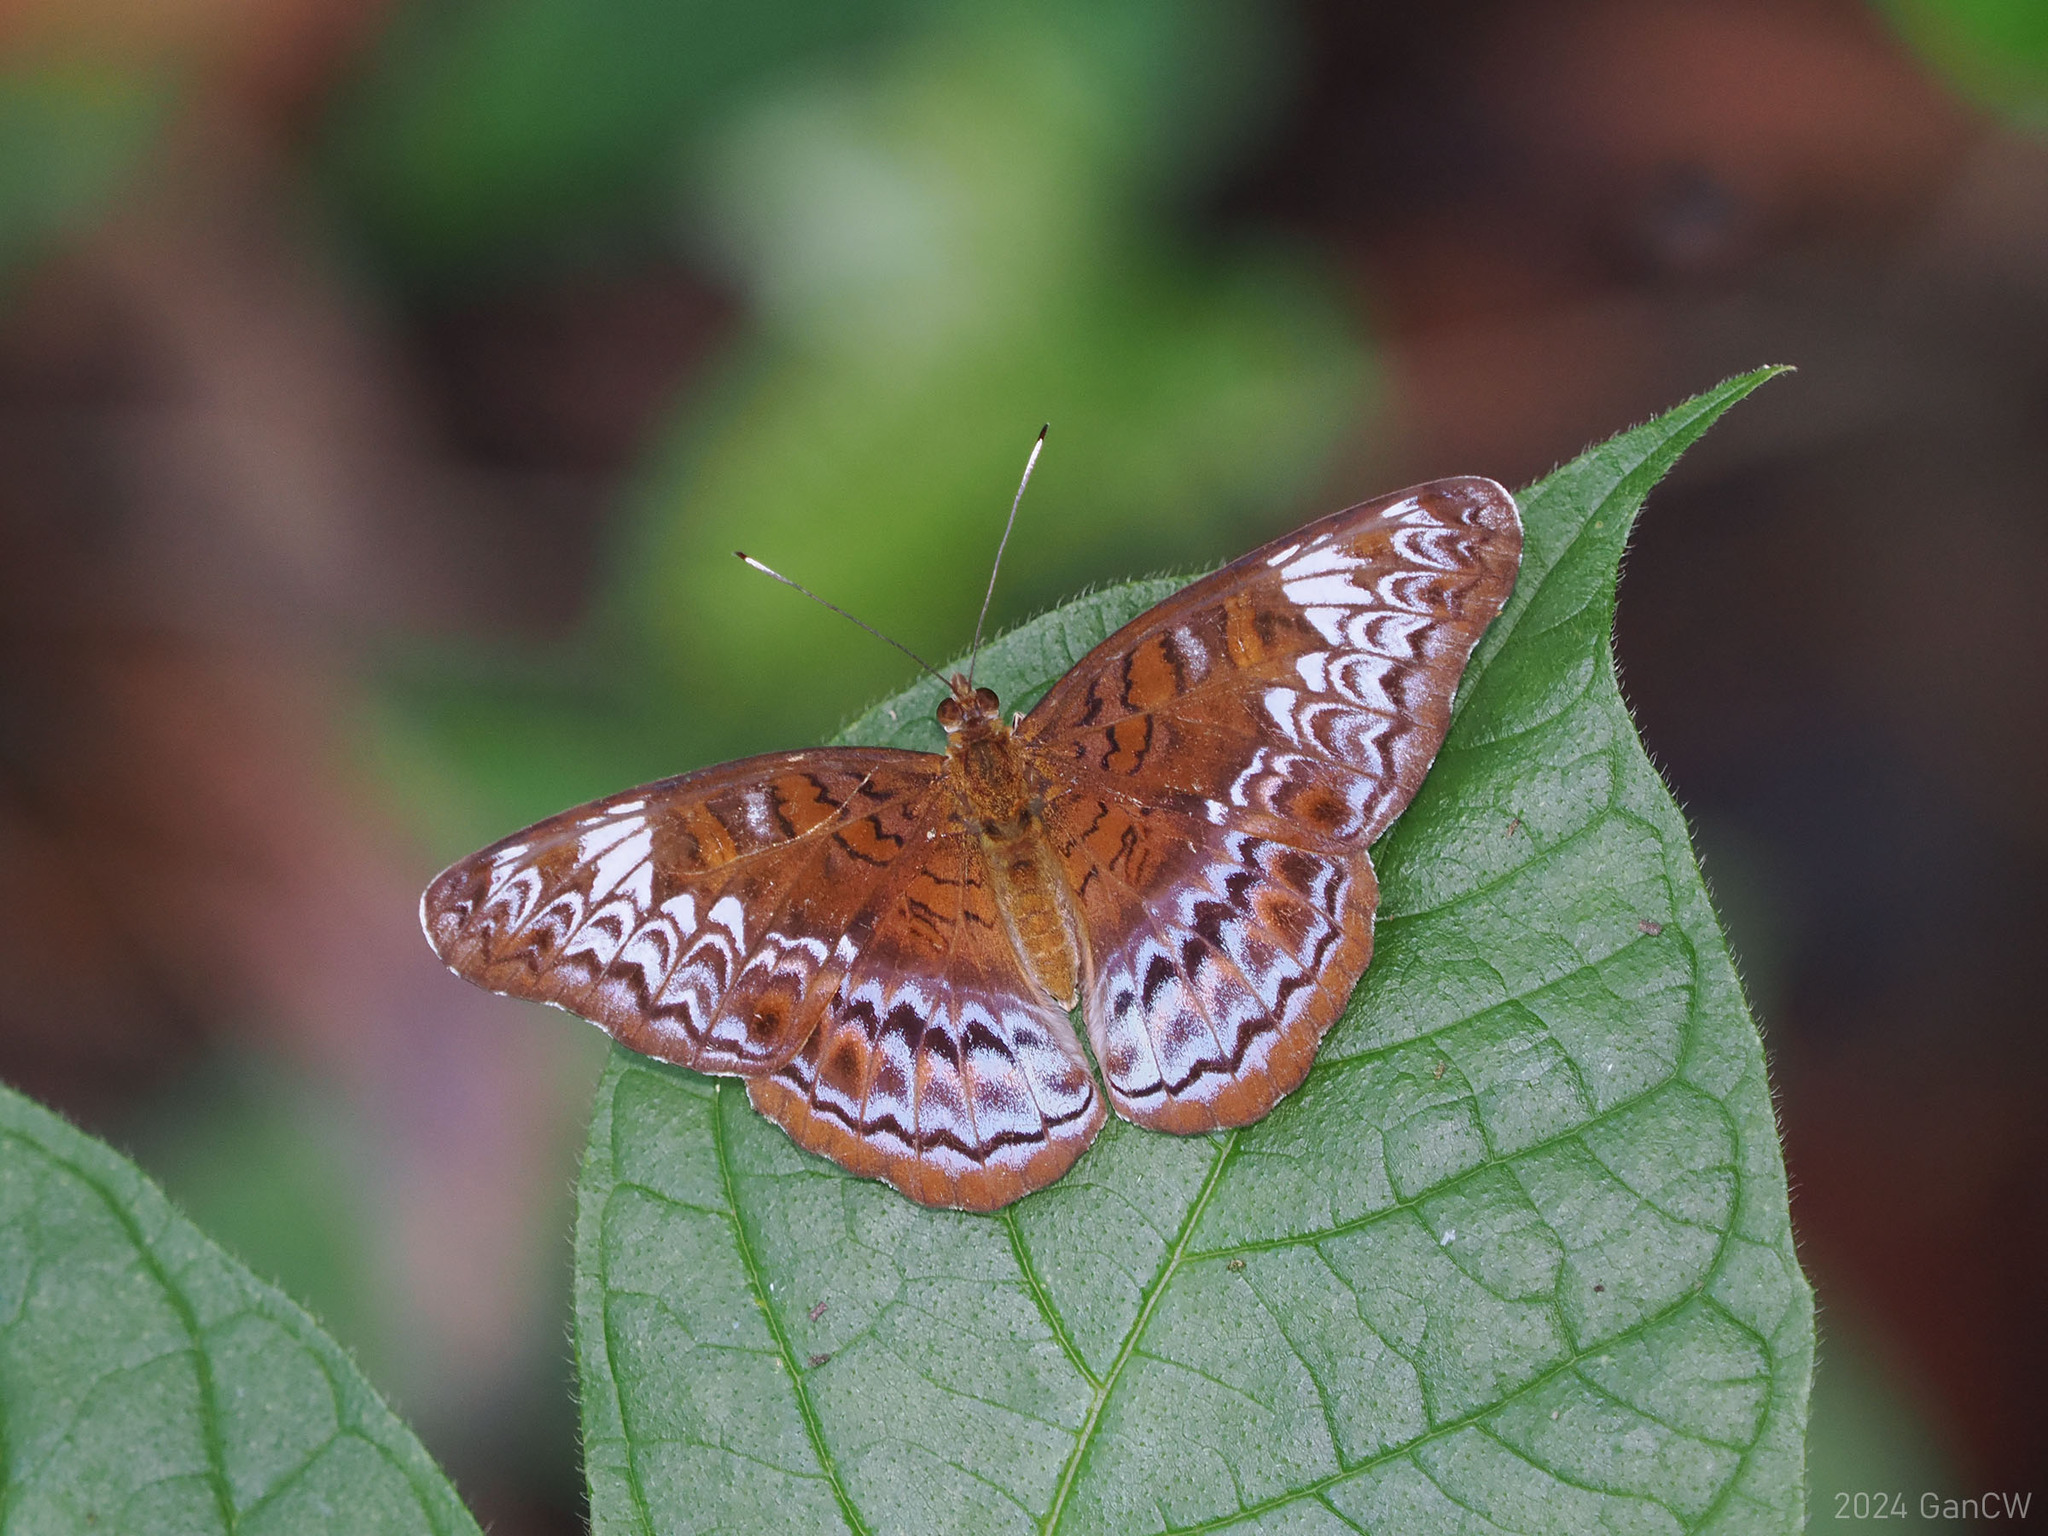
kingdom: Animalia
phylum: Arthropoda
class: Insecta
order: Lepidoptera
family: Nymphalidae
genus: Lebadea
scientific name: Lebadea martha
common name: Knight
